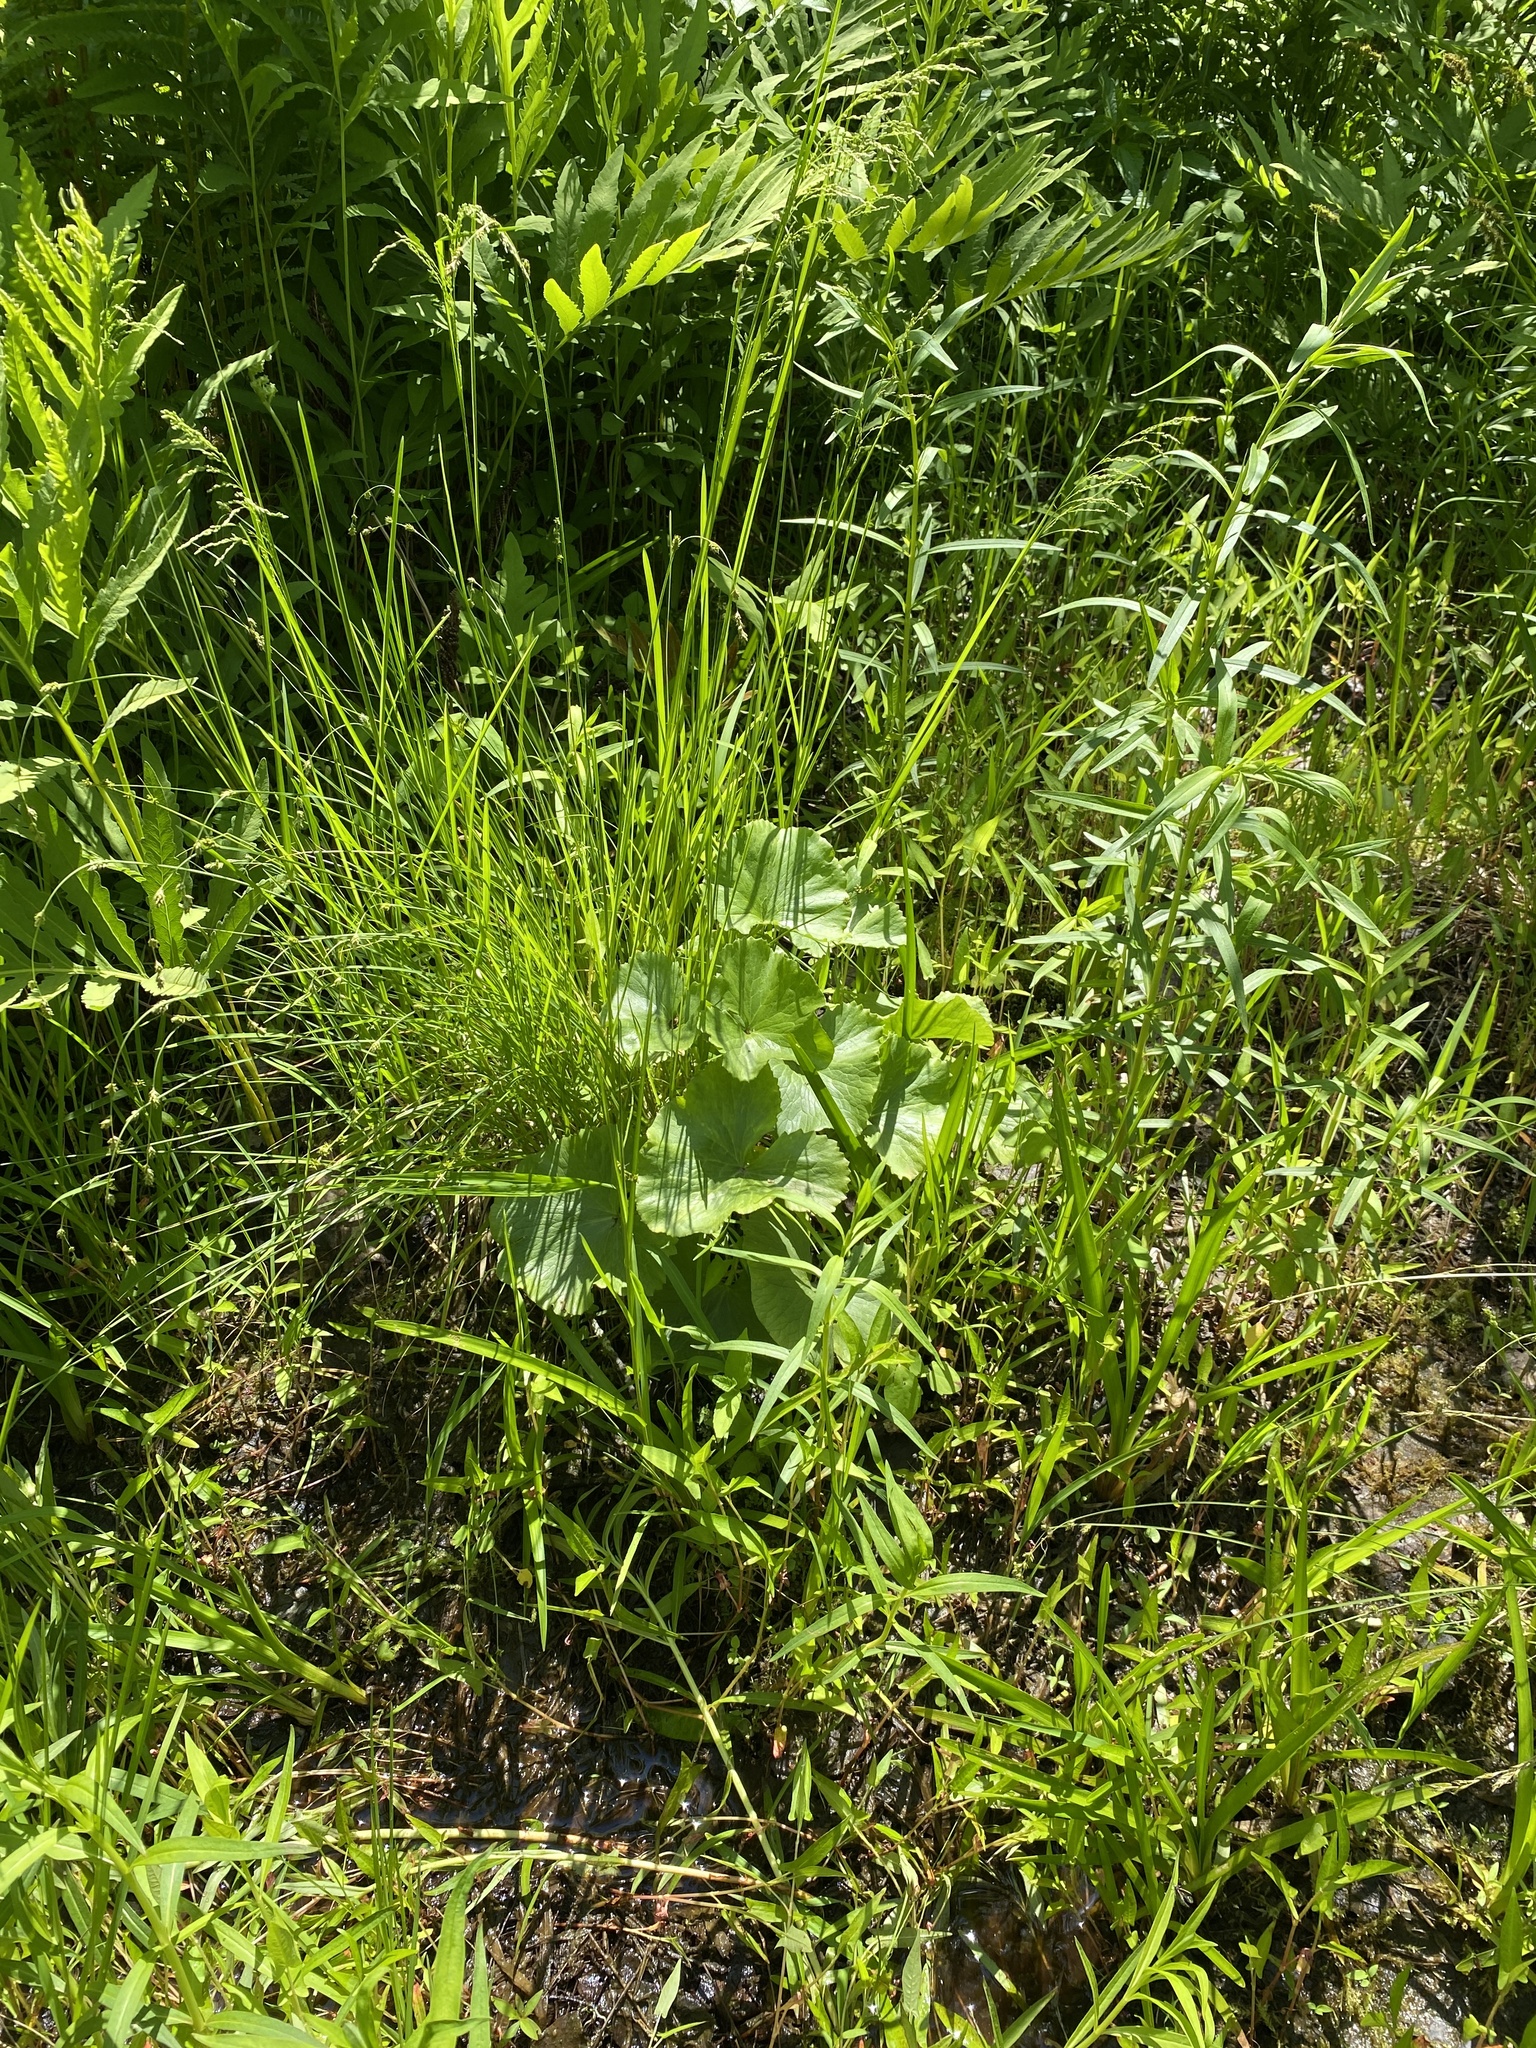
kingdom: Plantae
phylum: Tracheophyta
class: Magnoliopsida
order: Ranunculales
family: Ranunculaceae
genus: Caltha
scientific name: Caltha palustris
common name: Marsh marigold
